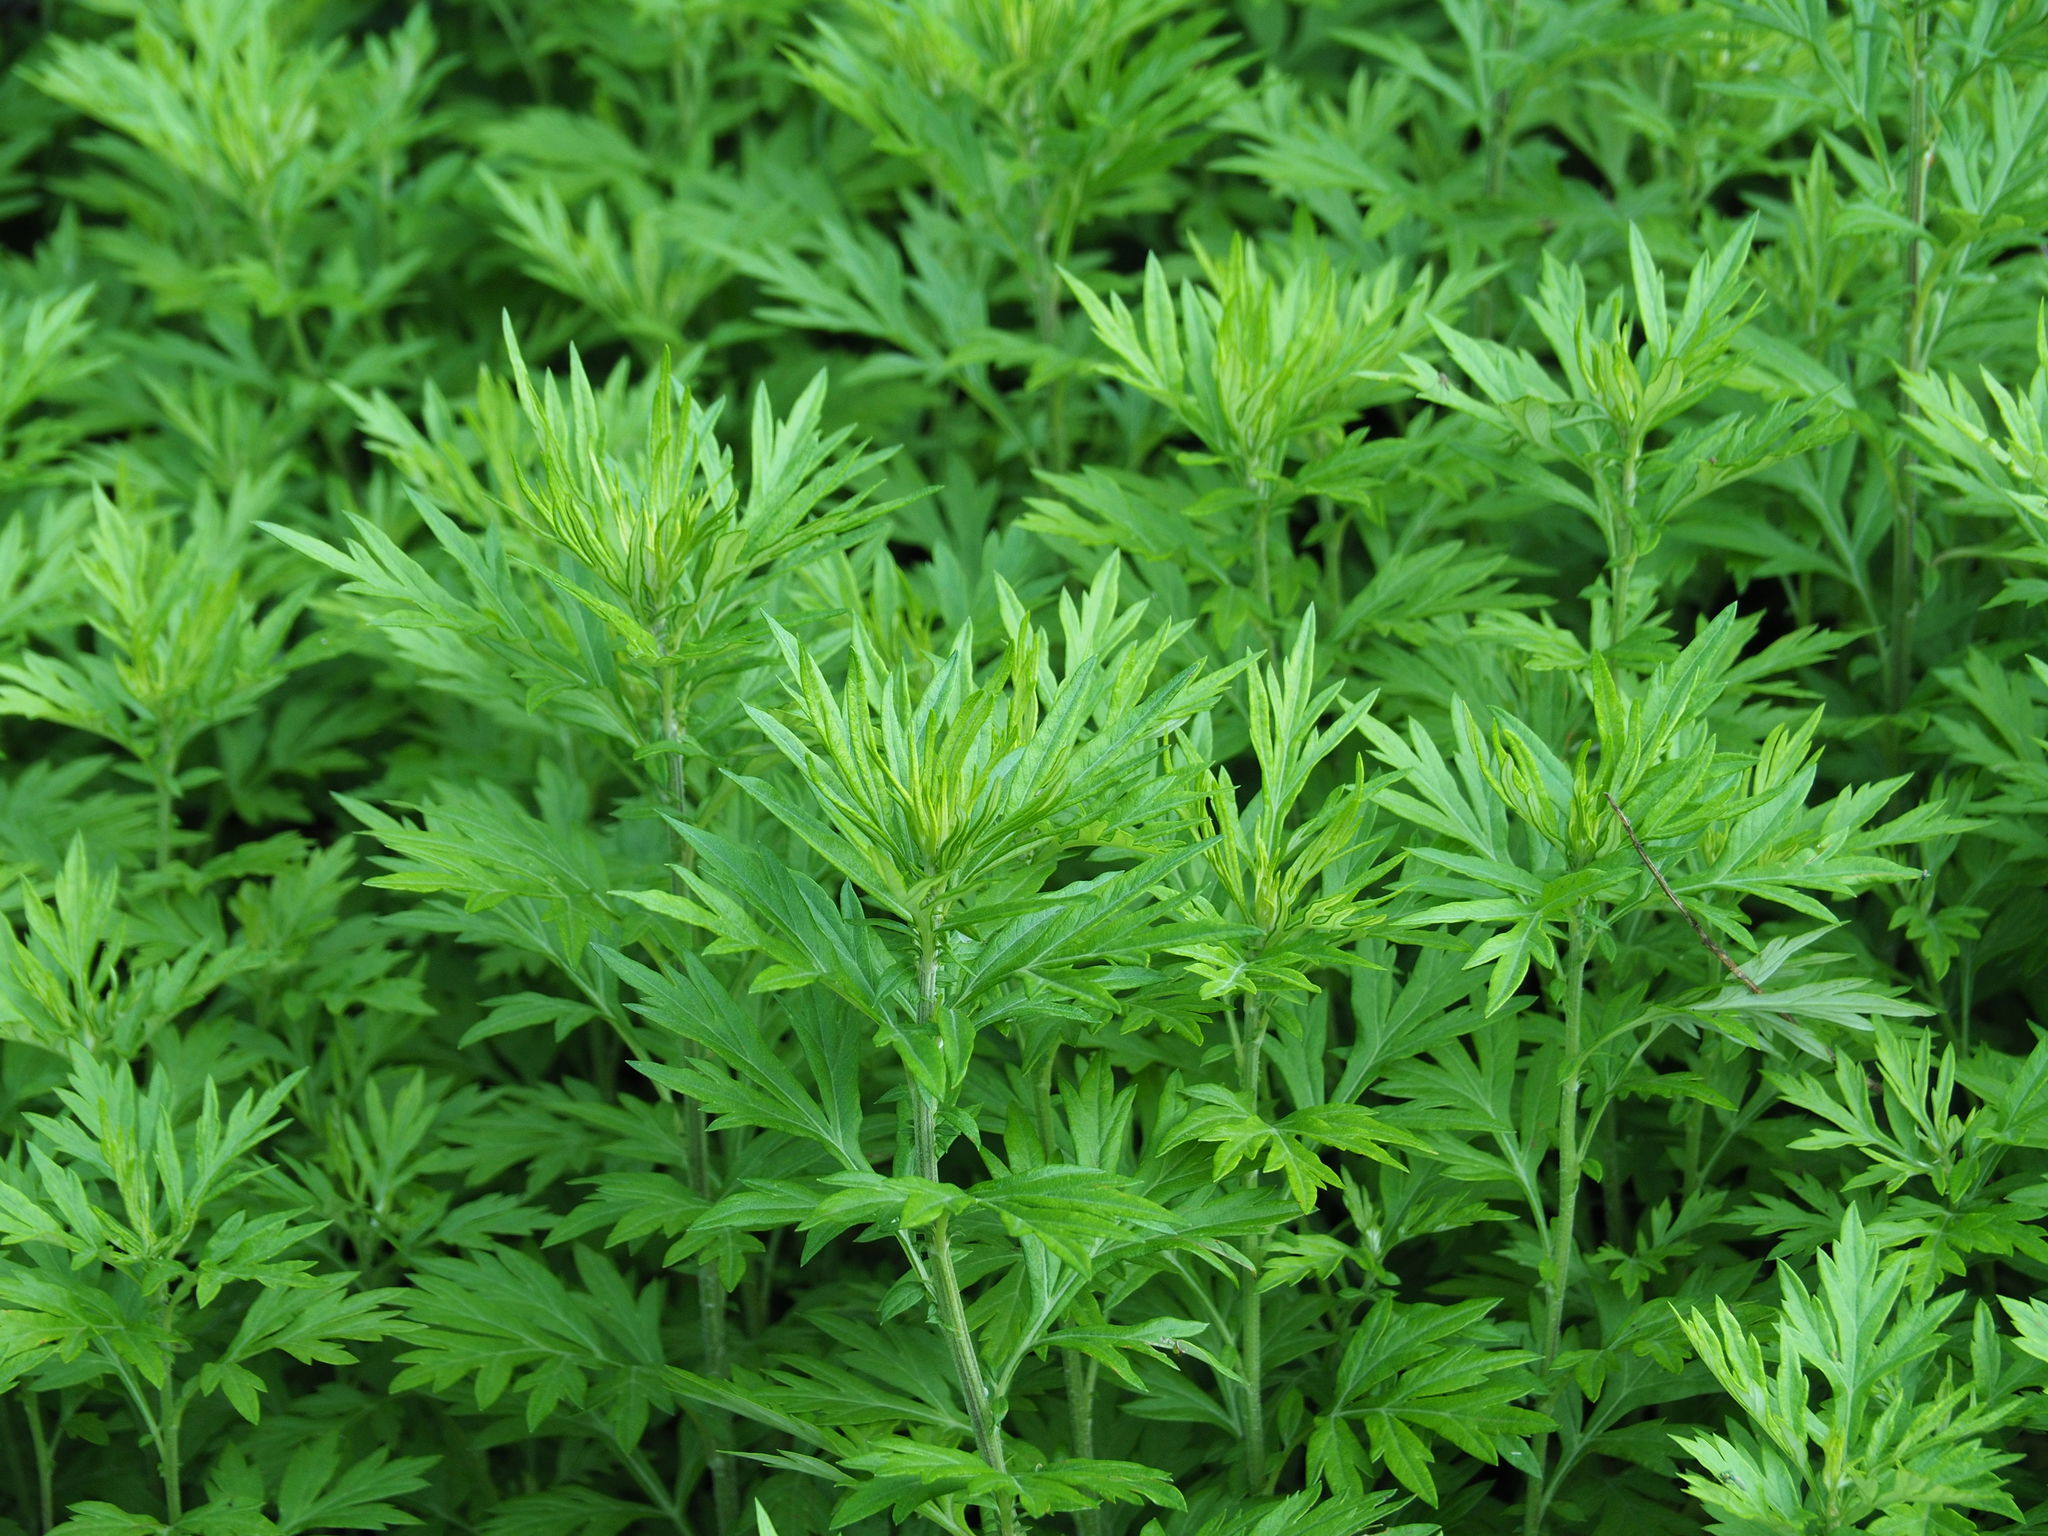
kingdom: Plantae
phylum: Tracheophyta
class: Magnoliopsida
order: Asterales
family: Asteraceae
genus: Artemisia
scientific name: Artemisia vulgaris
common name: Mugwort
